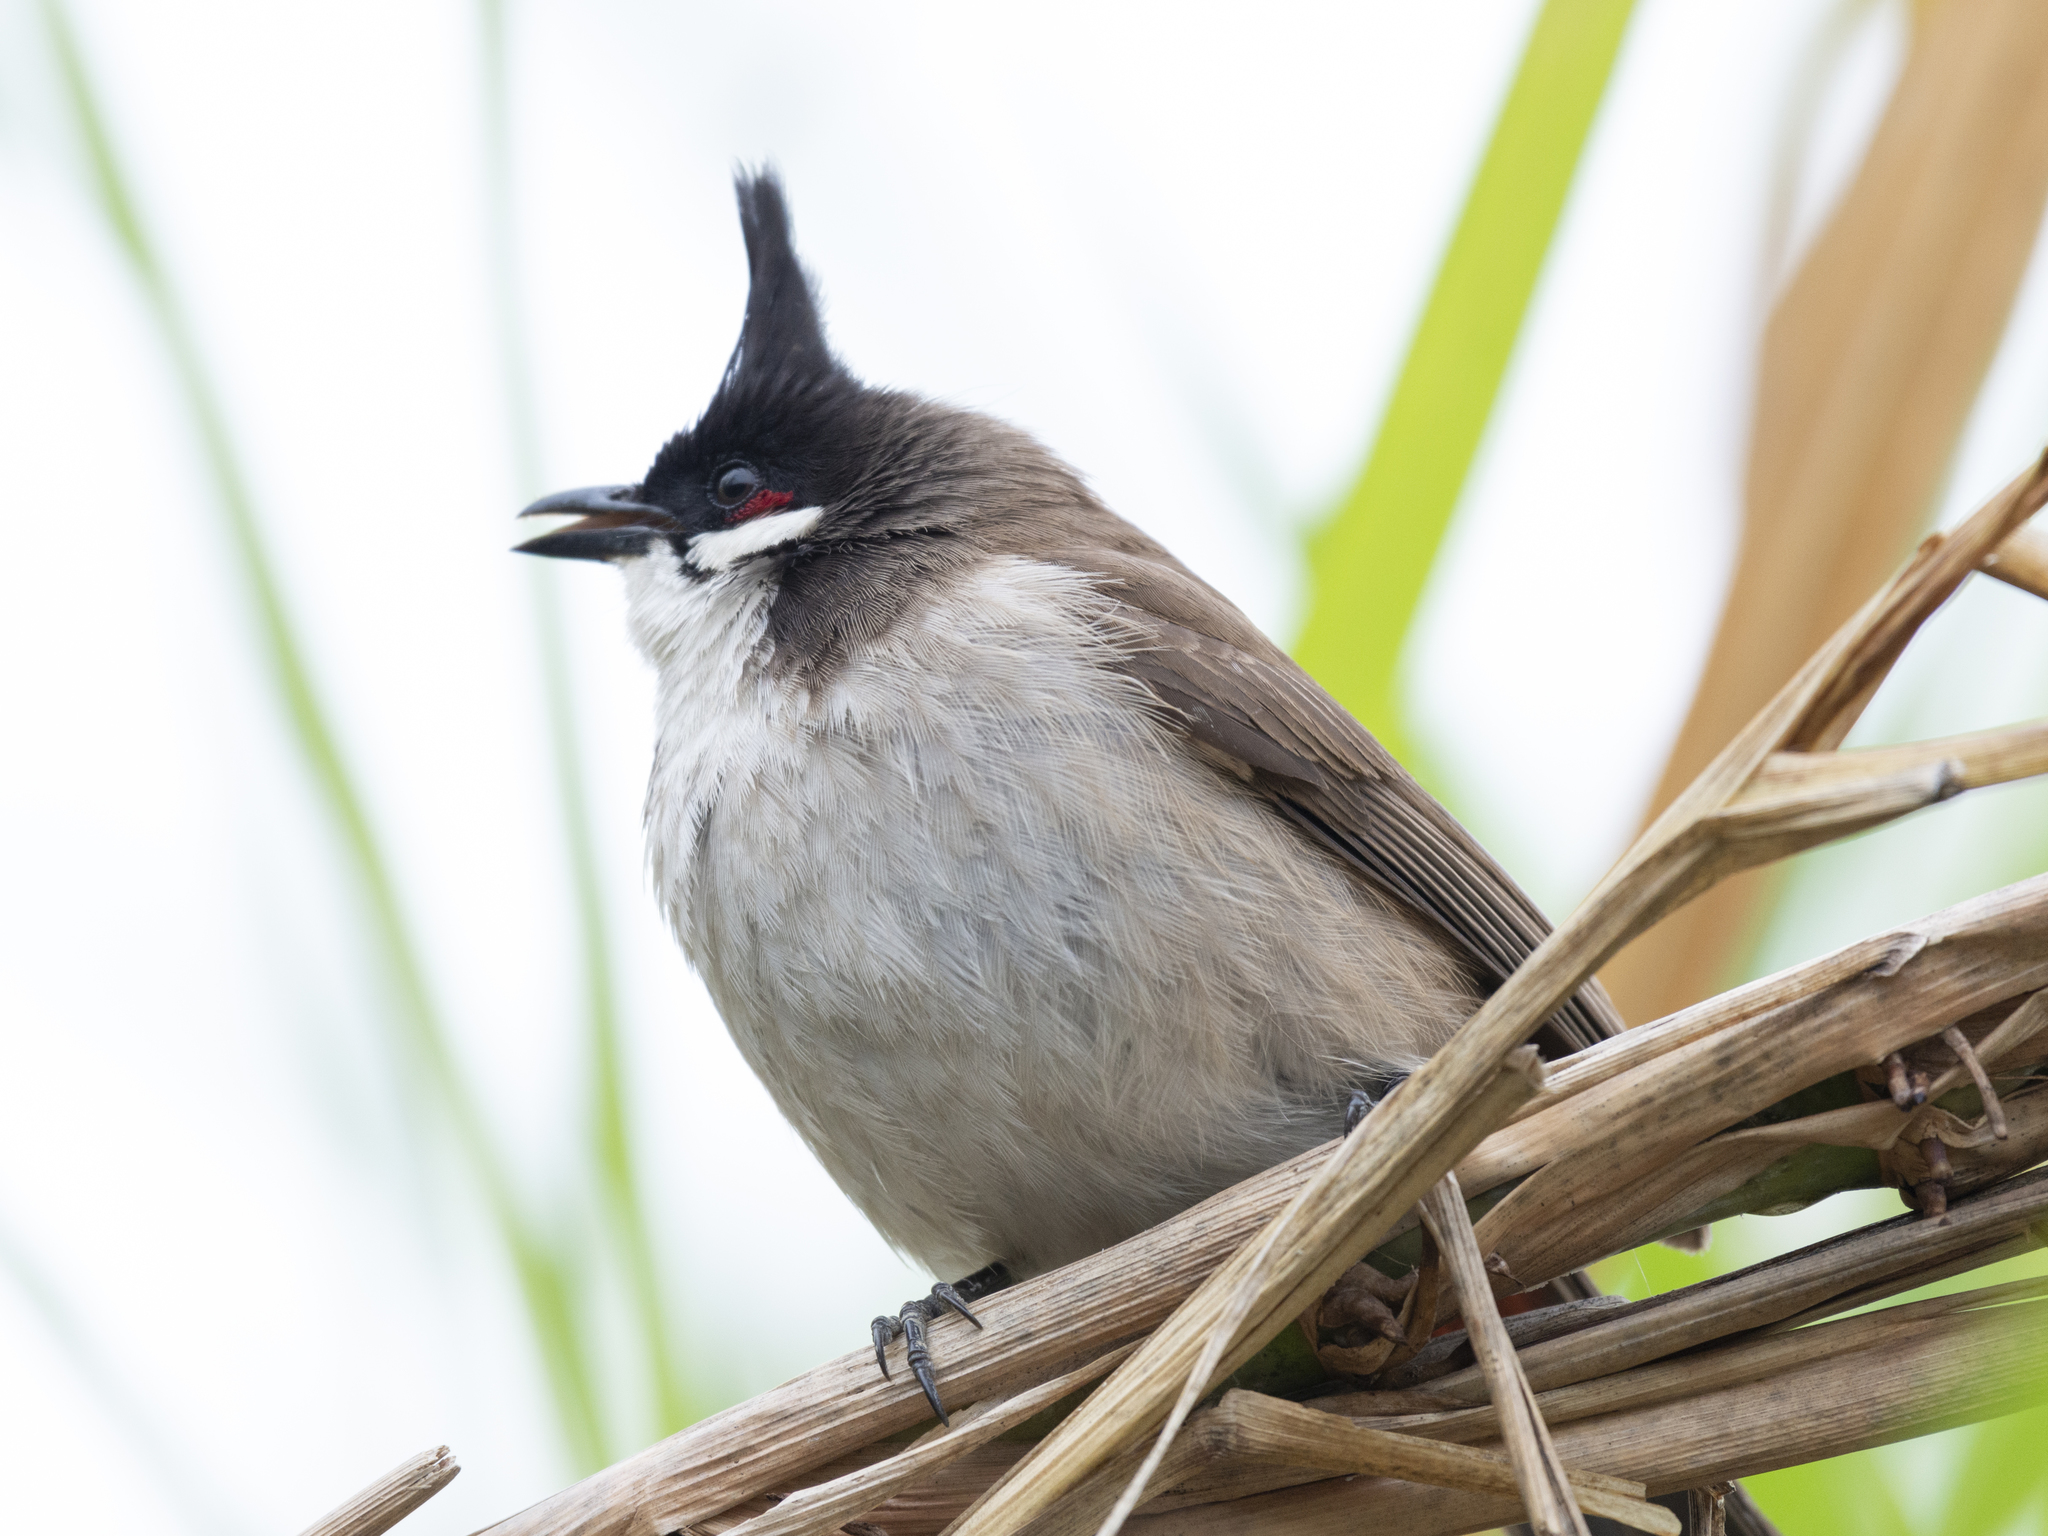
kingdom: Animalia
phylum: Chordata
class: Aves
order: Passeriformes
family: Pycnonotidae
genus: Pycnonotus
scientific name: Pycnonotus jocosus
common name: Red-whiskered bulbul
